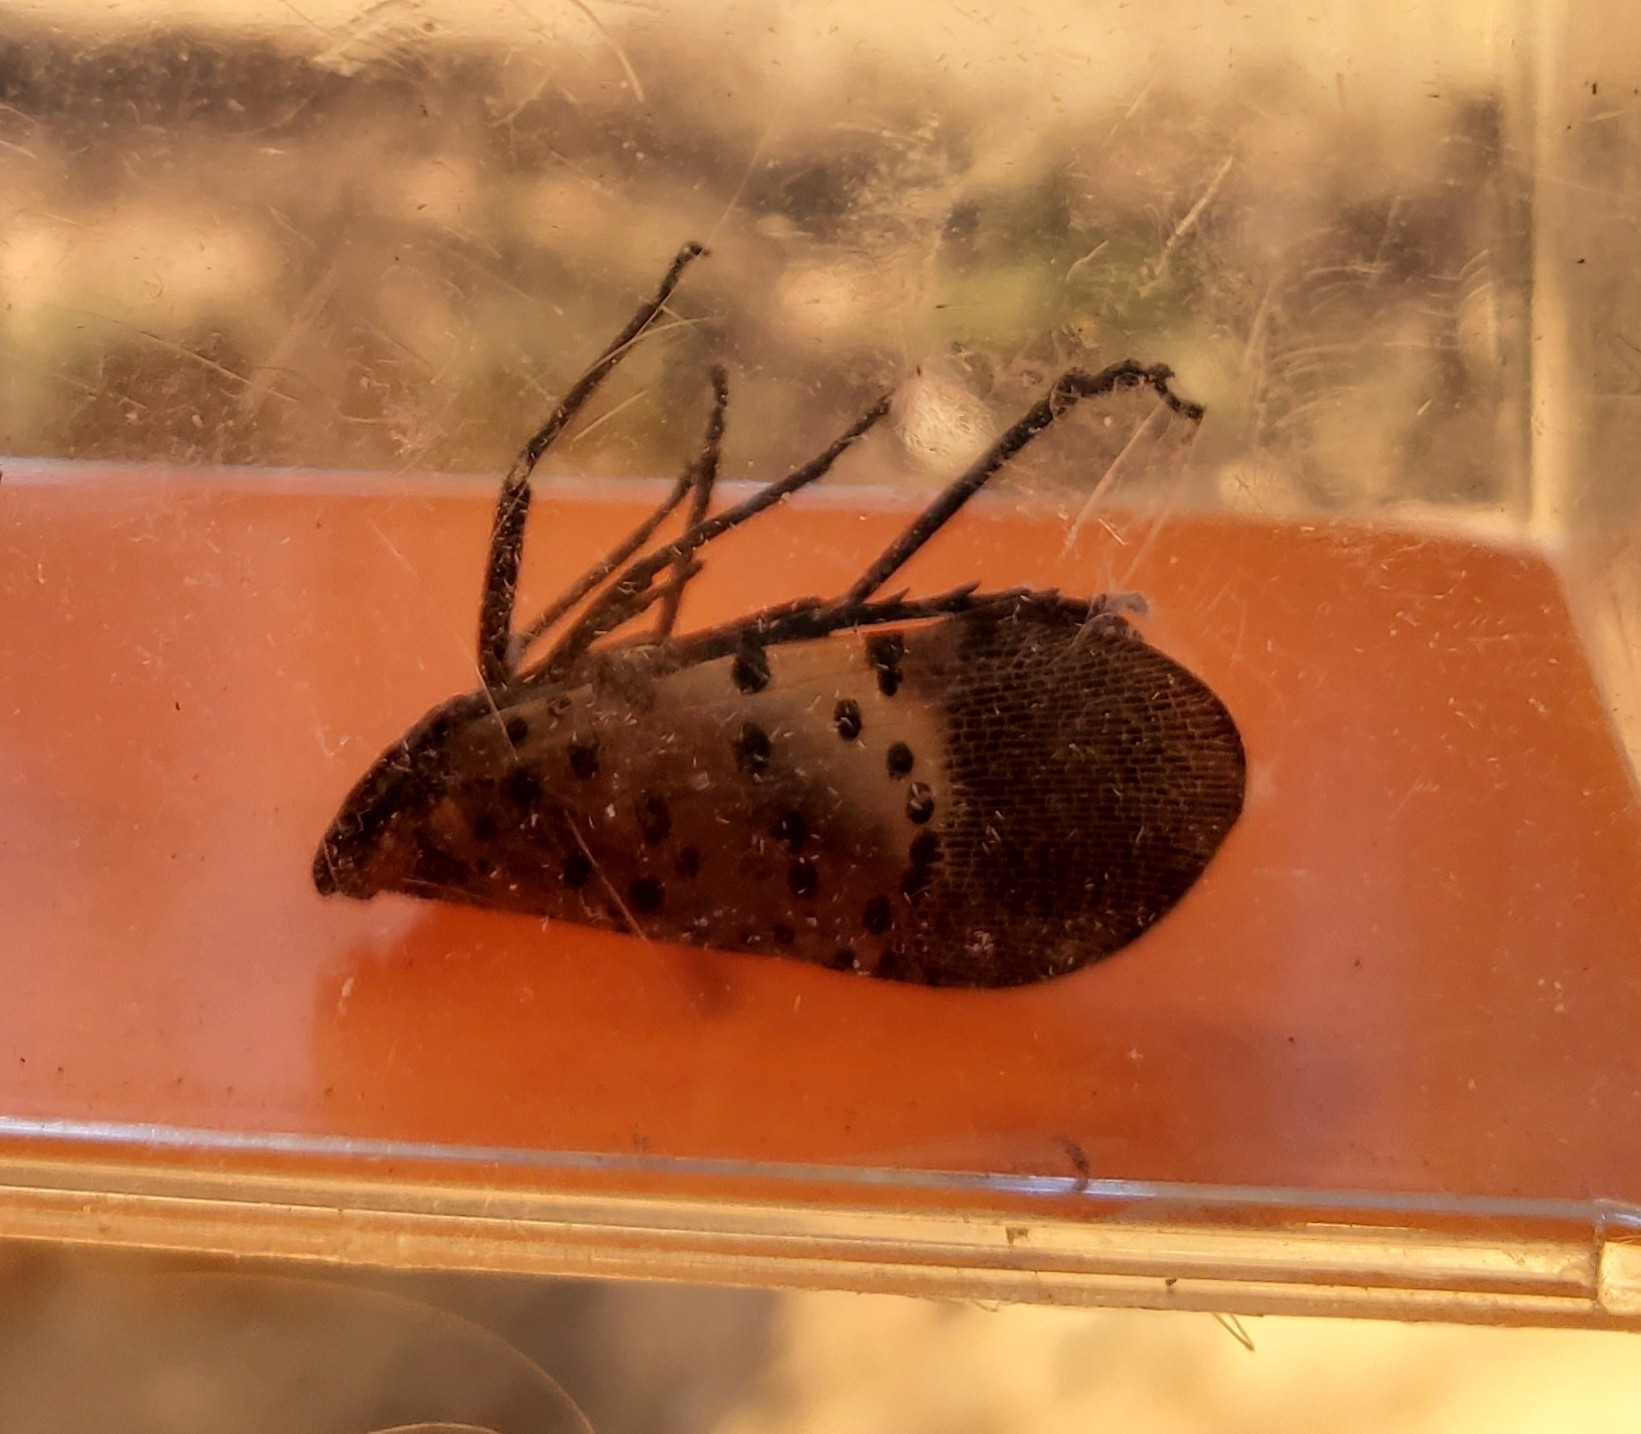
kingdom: Animalia
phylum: Arthropoda
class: Insecta
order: Hemiptera
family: Fulgoridae
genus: Lycorma
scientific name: Lycorma delicatula
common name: Spotted lanternfly
